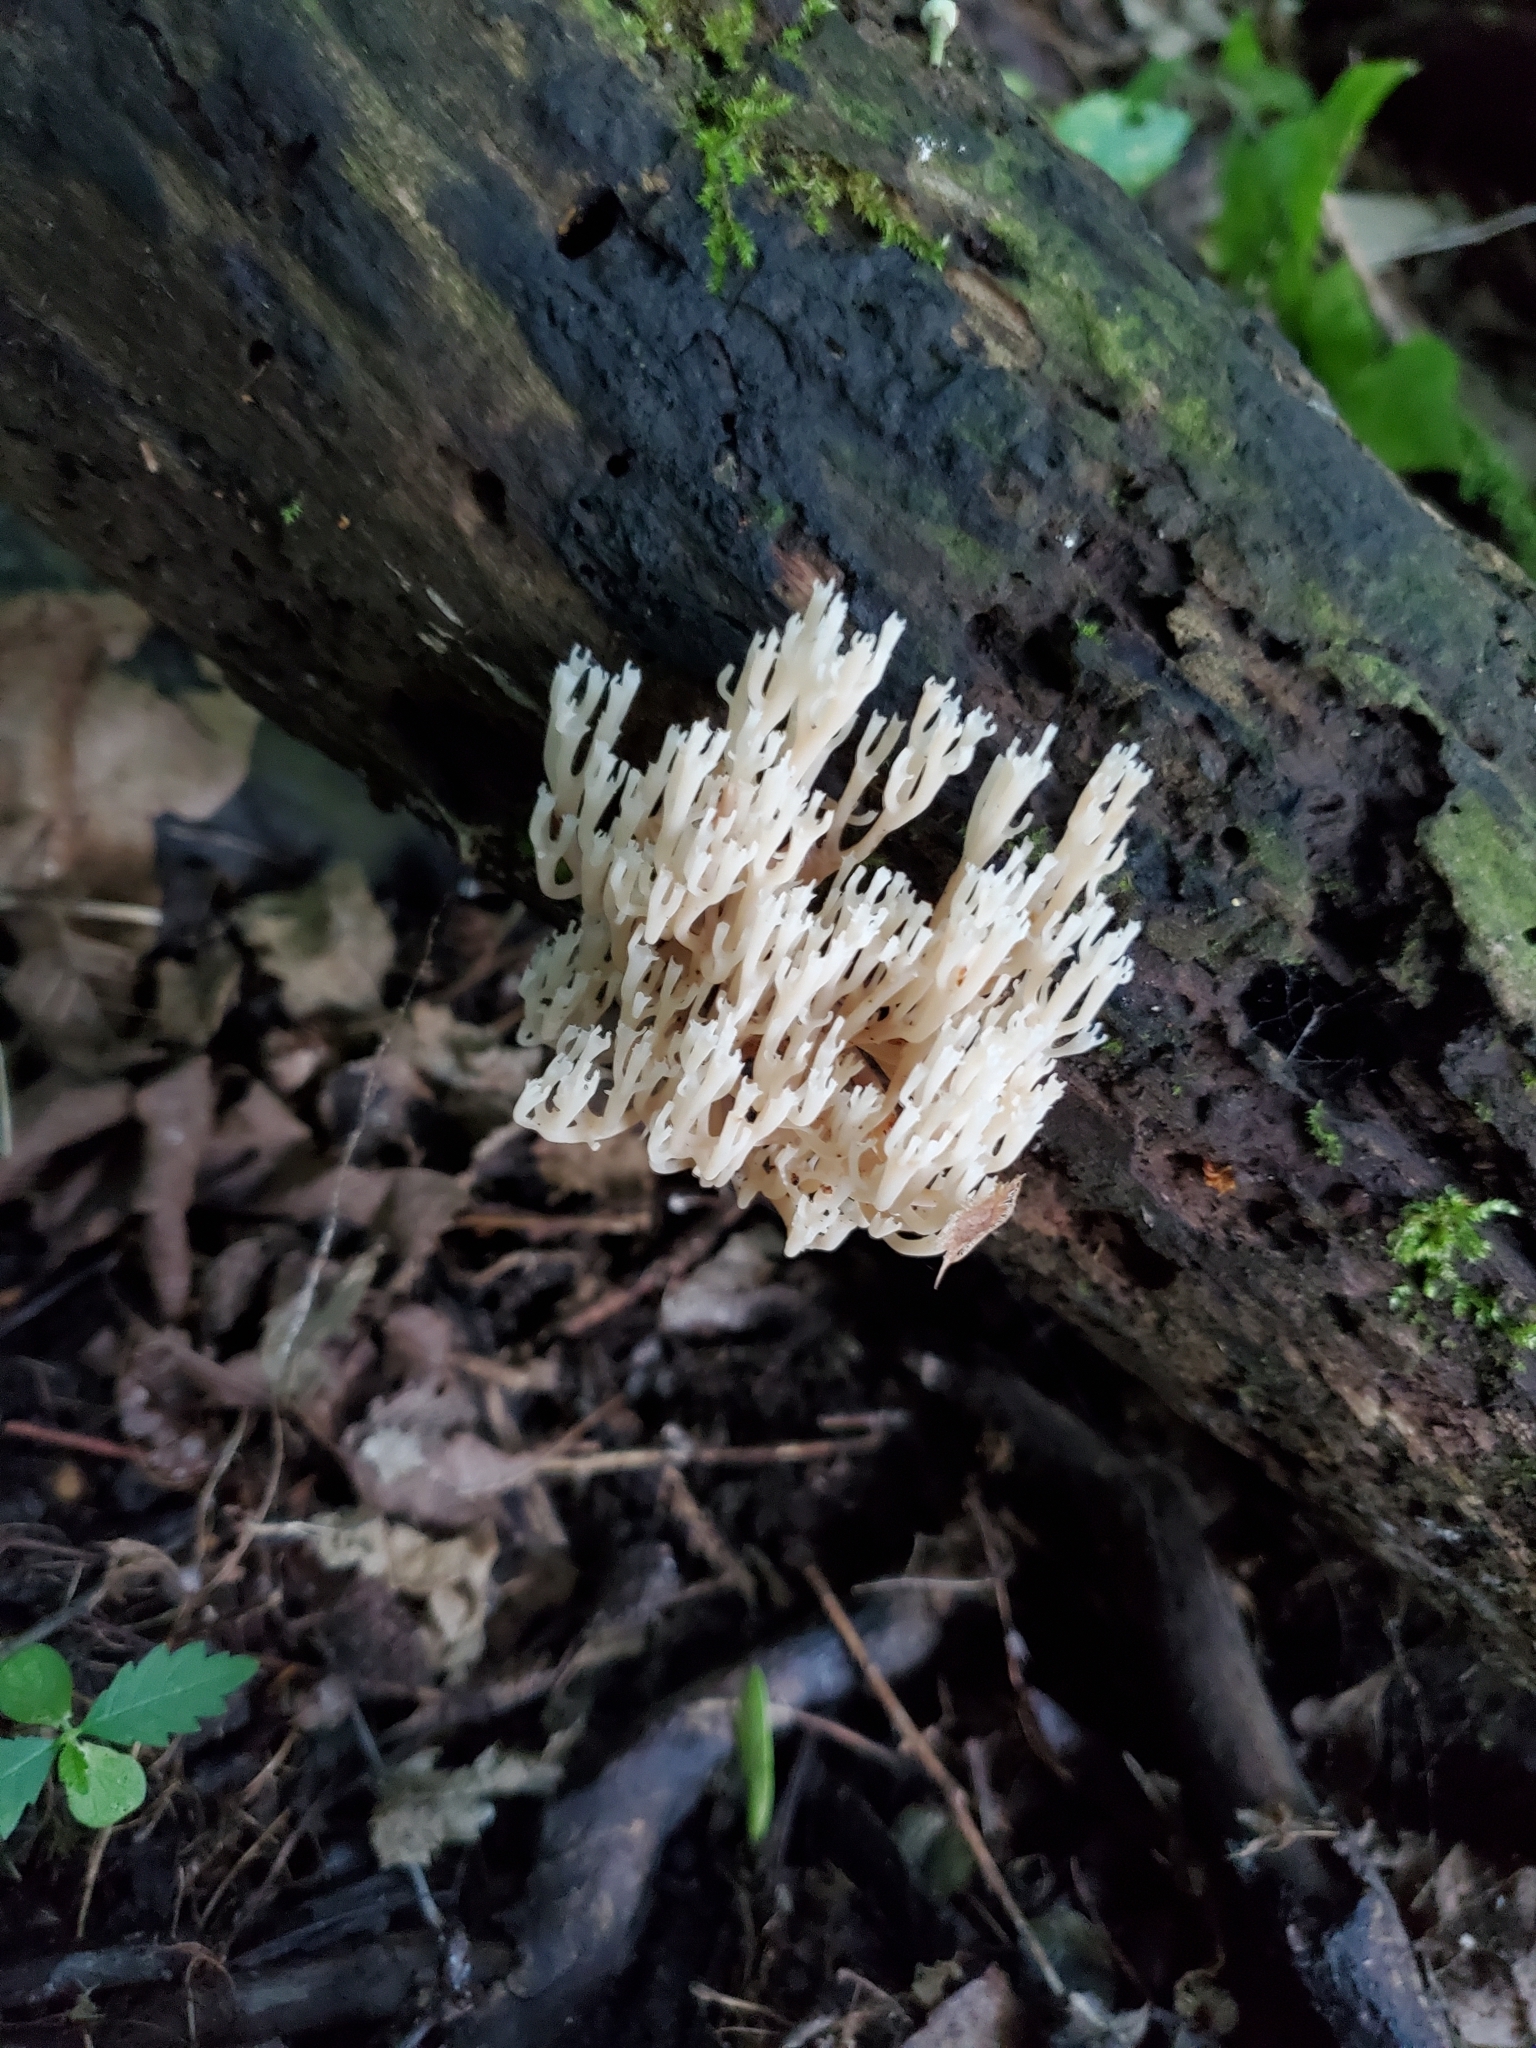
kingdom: Fungi
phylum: Basidiomycota
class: Agaricomycetes
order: Russulales
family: Auriscalpiaceae
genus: Artomyces
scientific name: Artomyces pyxidatus
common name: Crown-tipped coral fungus
